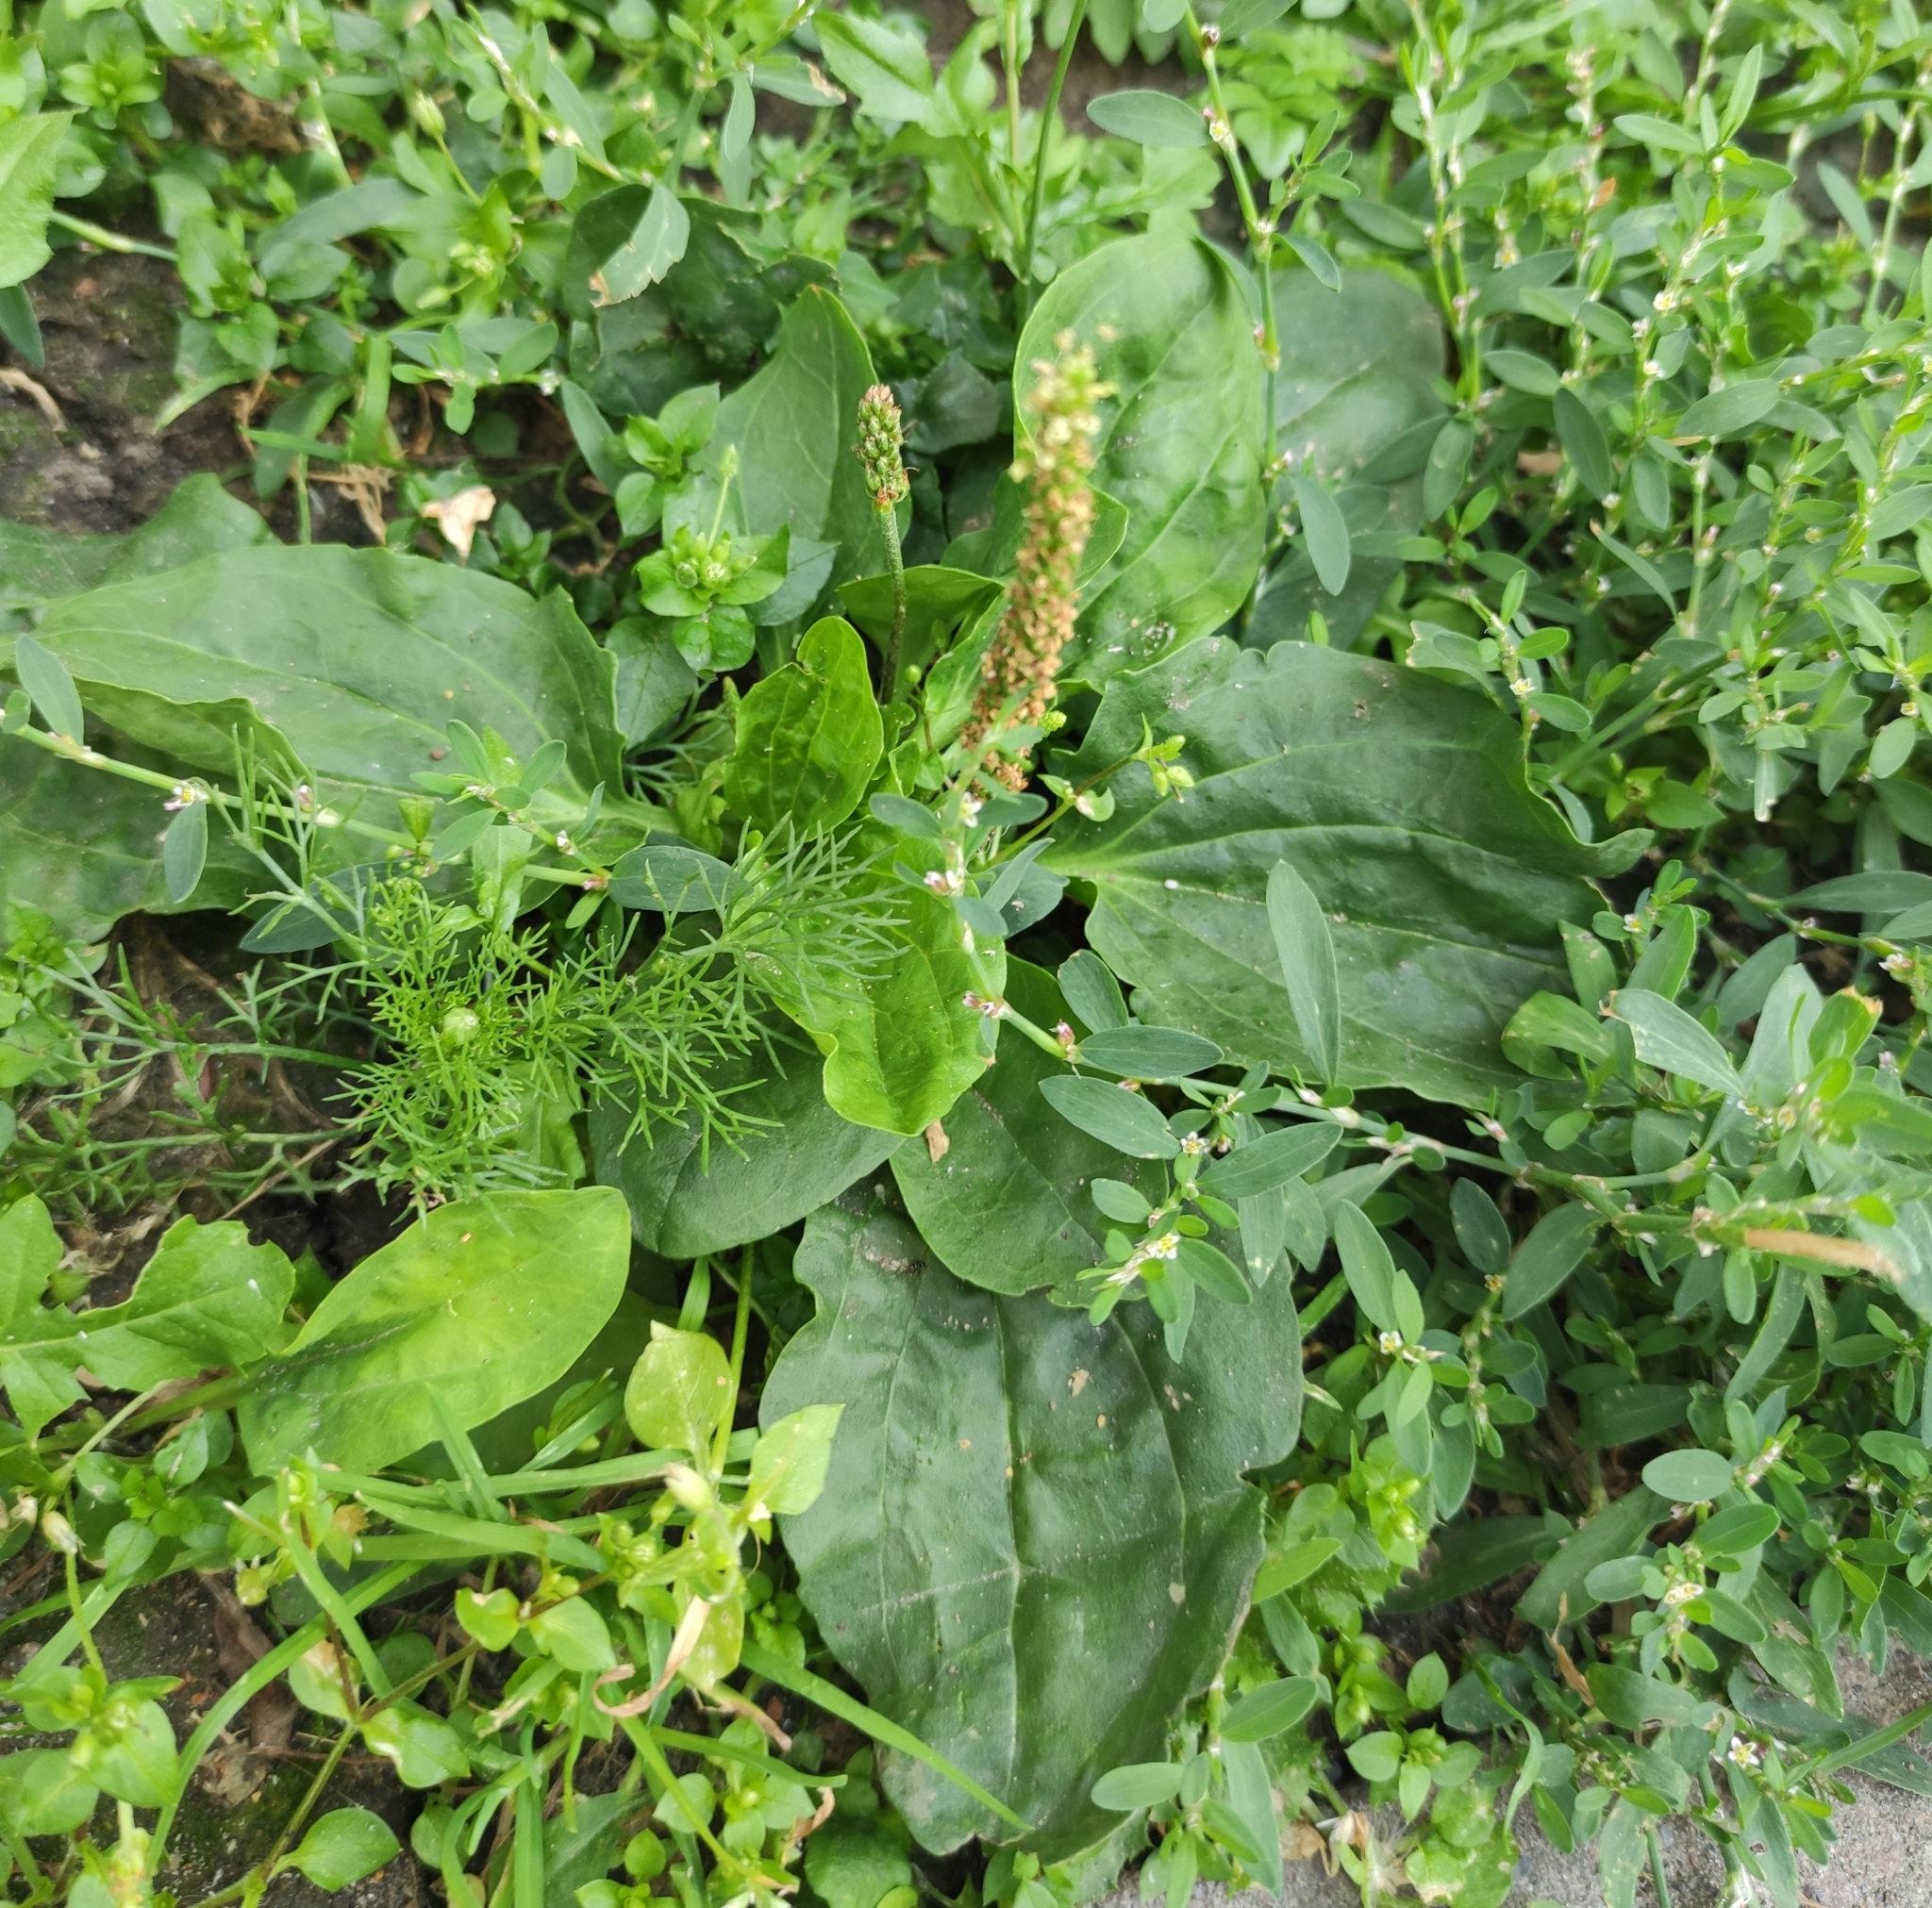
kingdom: Plantae
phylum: Tracheophyta
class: Magnoliopsida
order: Lamiales
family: Plantaginaceae
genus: Plantago
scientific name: Plantago major
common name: Common plantain
